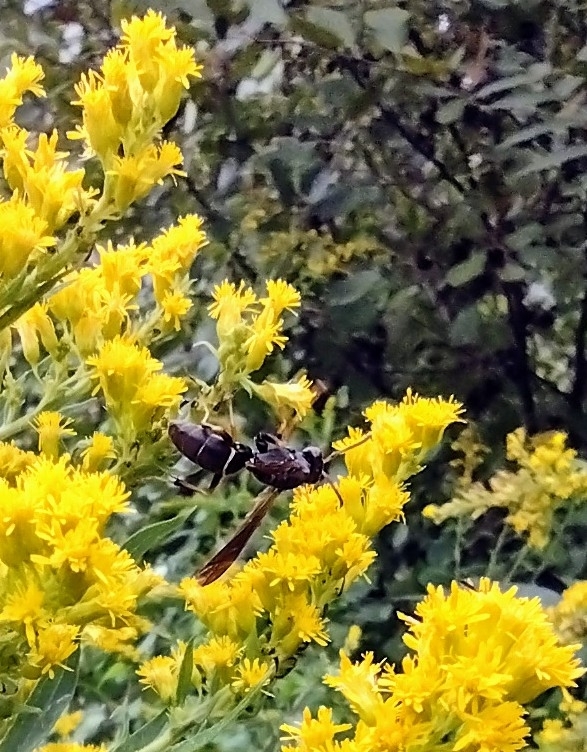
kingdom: Animalia
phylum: Arthropoda
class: Insecta
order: Hymenoptera
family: Eumenidae
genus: Polistes
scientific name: Polistes fuscatus
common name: Dark paper wasp
